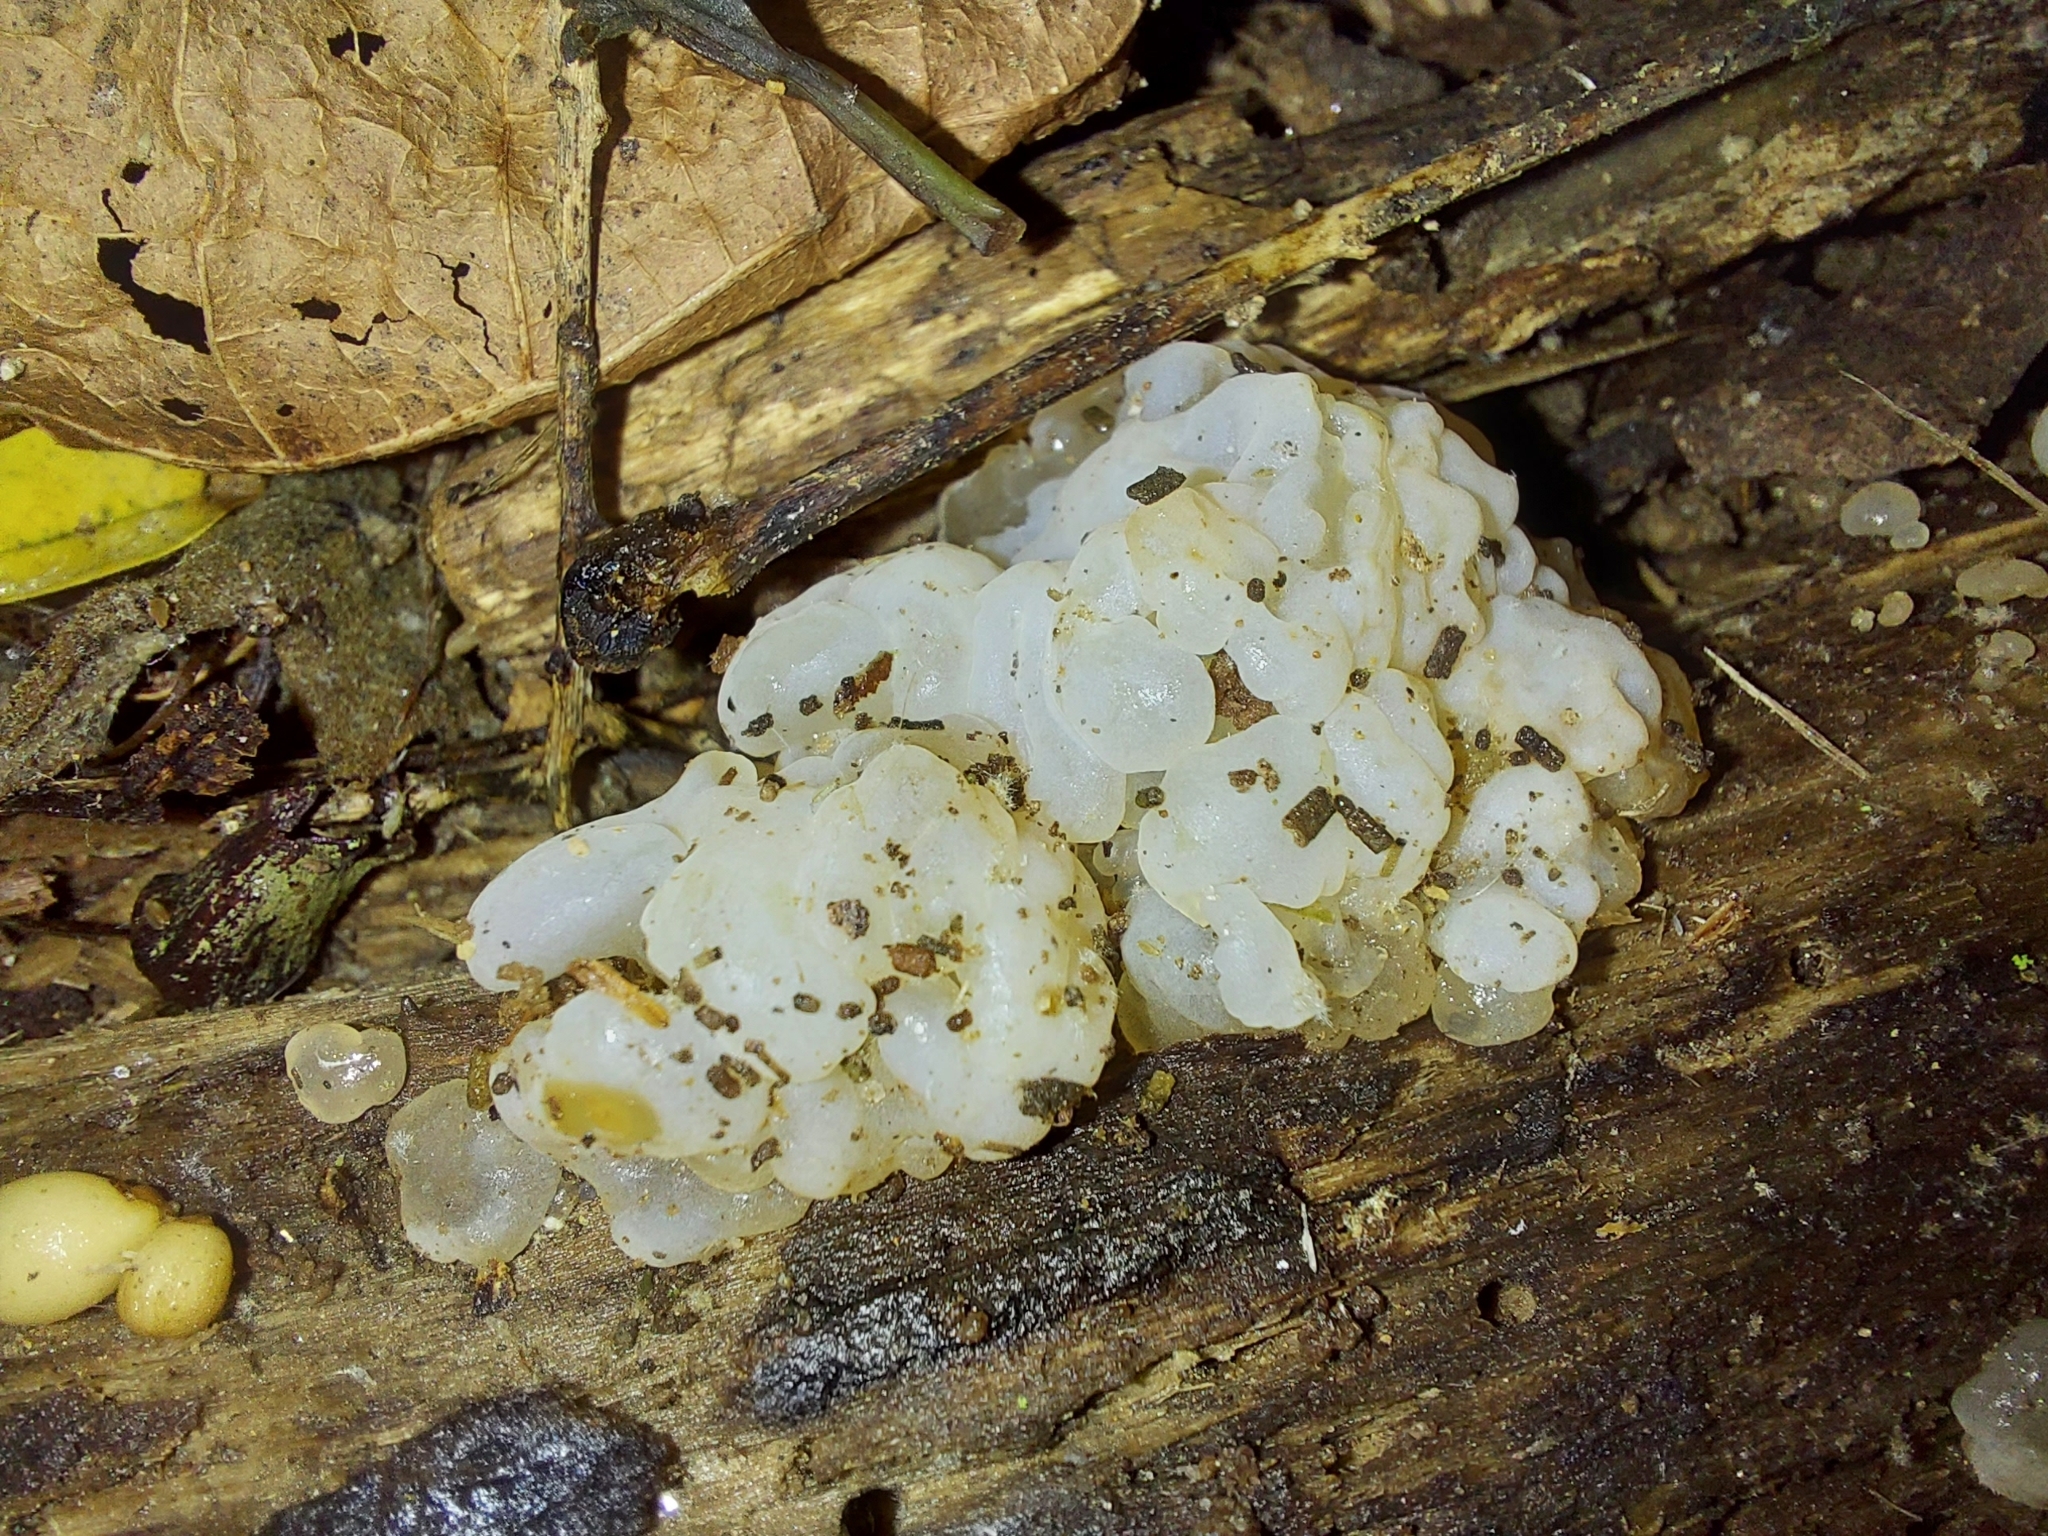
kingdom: Fungi
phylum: Basidiomycota
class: Agaricomycetes
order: Auriculariales
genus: Ductifera
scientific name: Ductifera pululahuana
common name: White jelly fungus
